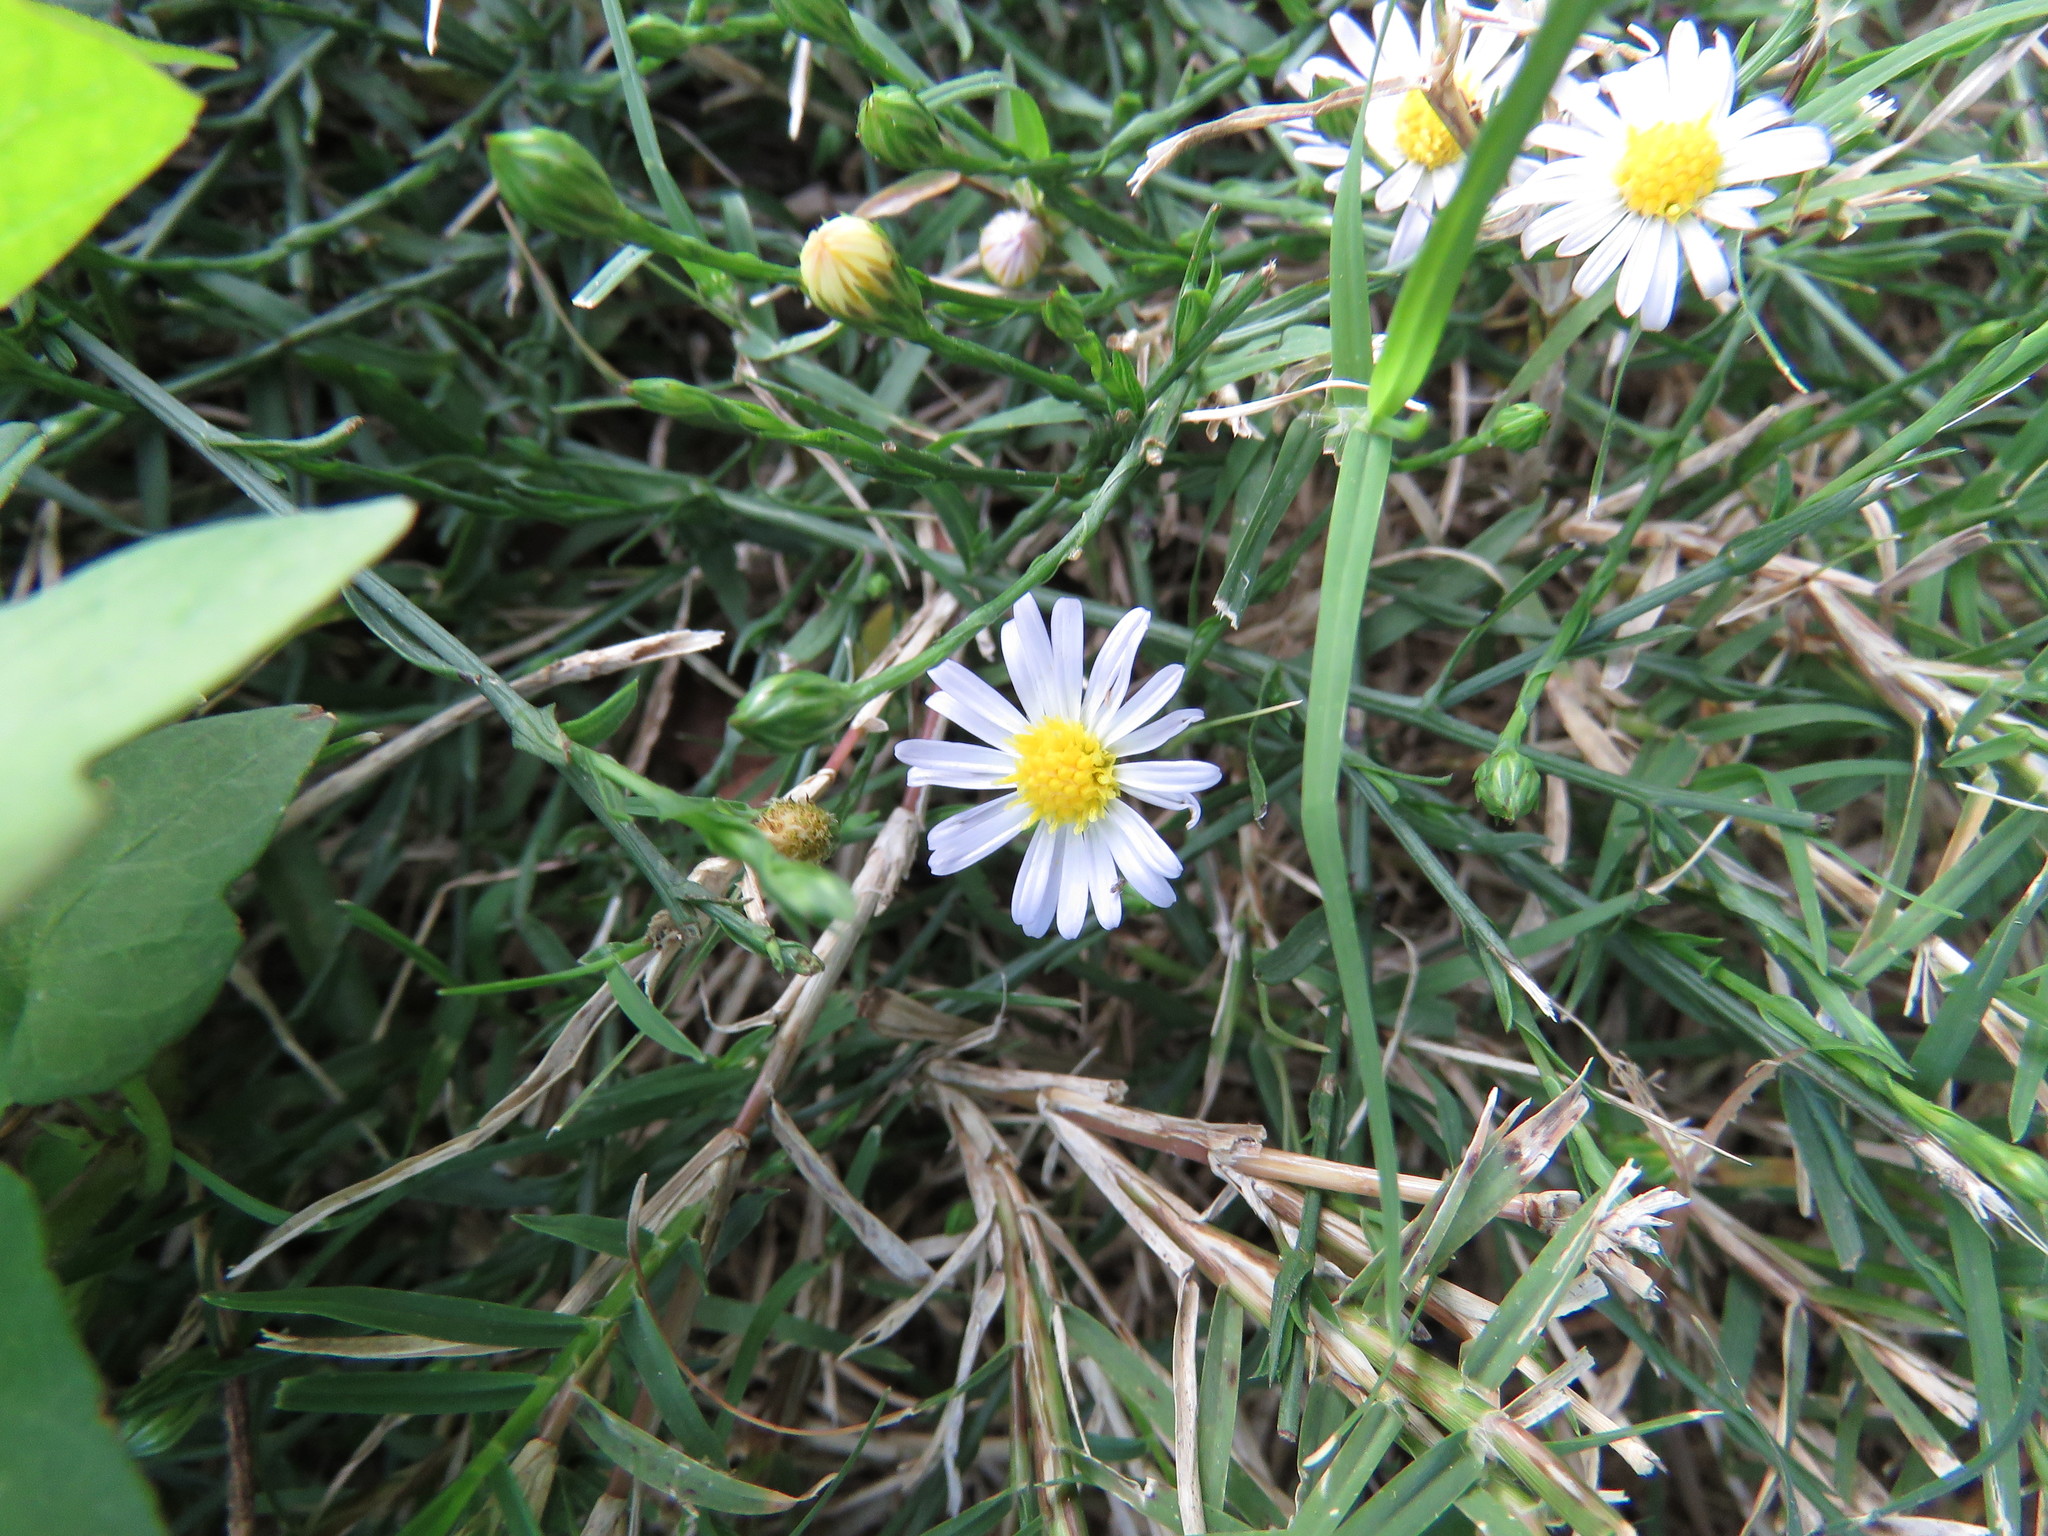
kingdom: Plantae
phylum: Tracheophyta
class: Magnoliopsida
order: Asterales
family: Asteraceae
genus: Symphyotrichum
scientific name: Symphyotrichum divaricatum
